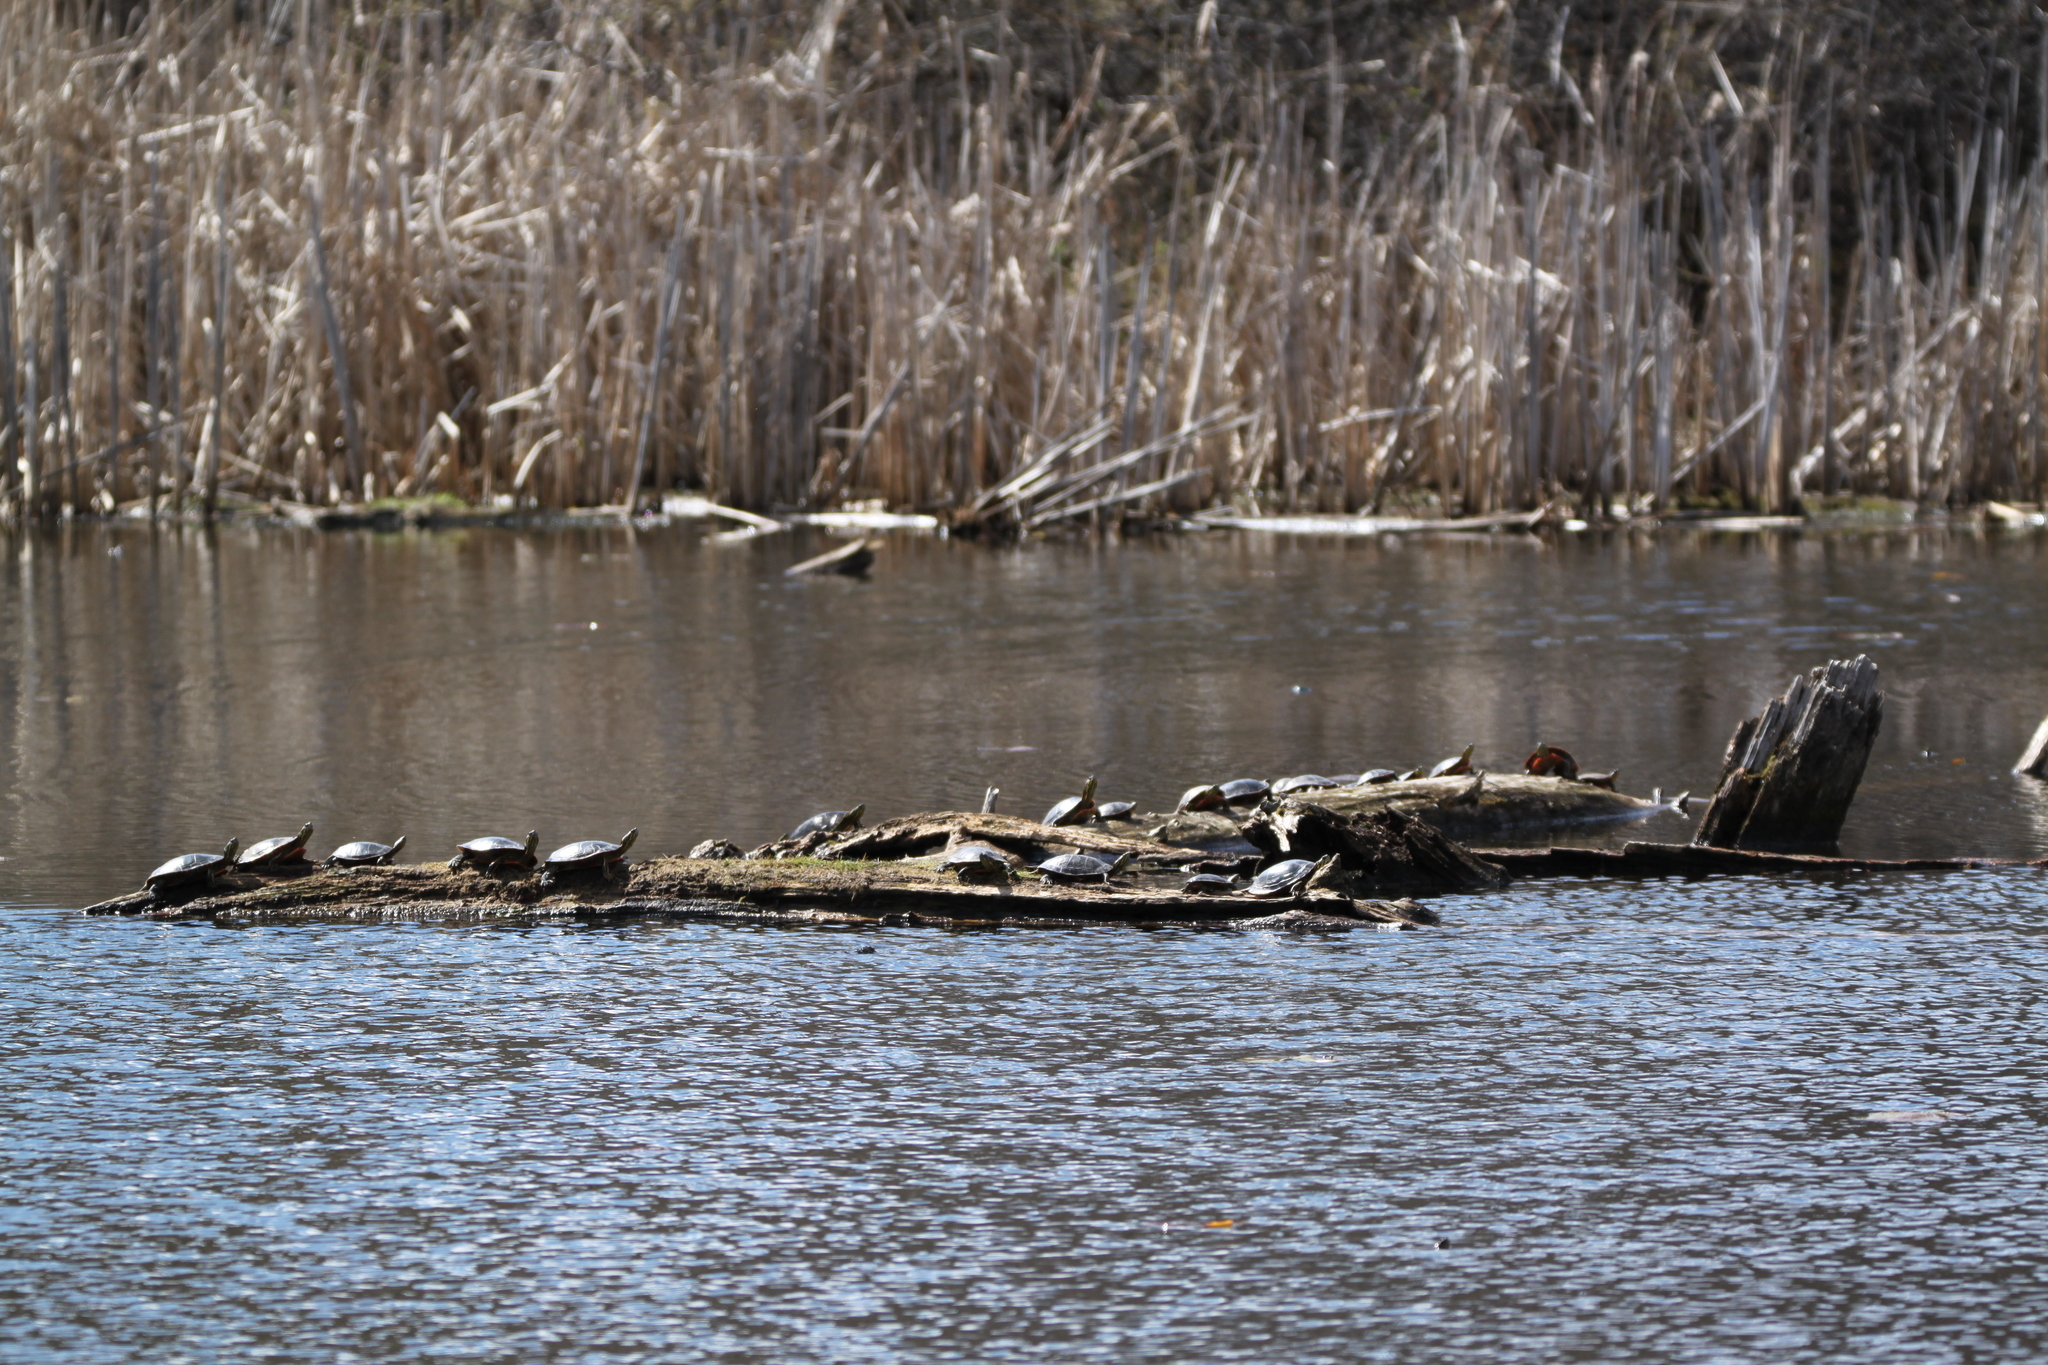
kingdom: Animalia
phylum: Chordata
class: Testudines
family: Emydidae
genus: Chrysemys
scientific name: Chrysemys picta
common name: Painted turtle
